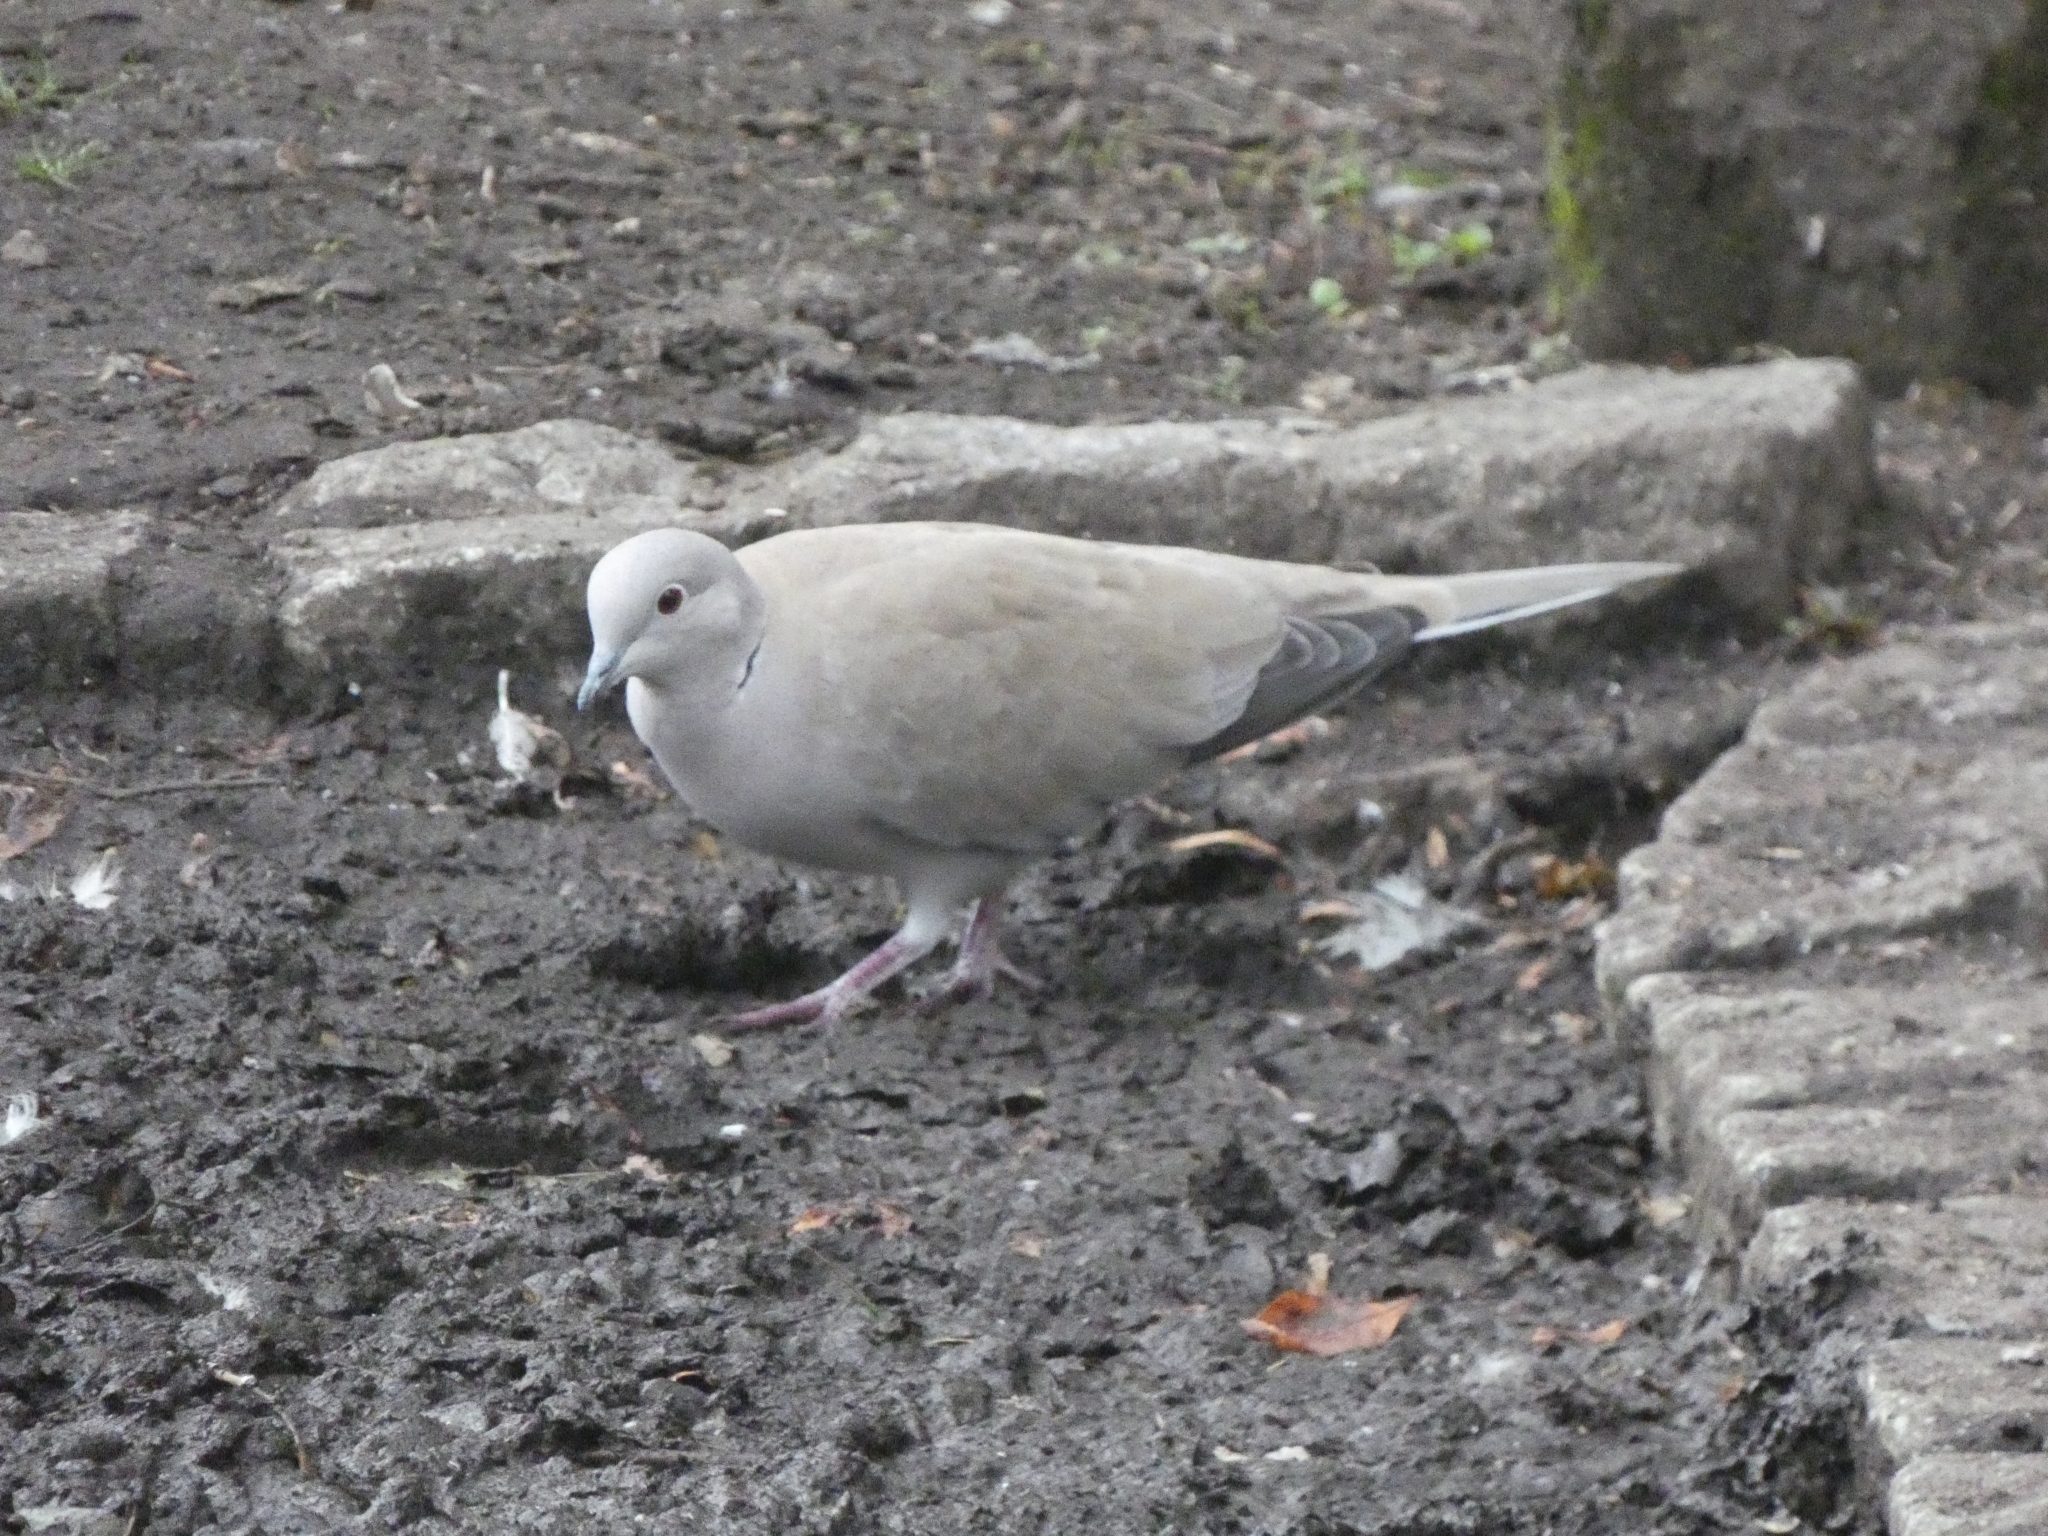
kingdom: Animalia
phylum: Chordata
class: Aves
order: Columbiformes
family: Columbidae
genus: Streptopelia
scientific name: Streptopelia decaocto
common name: Eurasian collared dove
